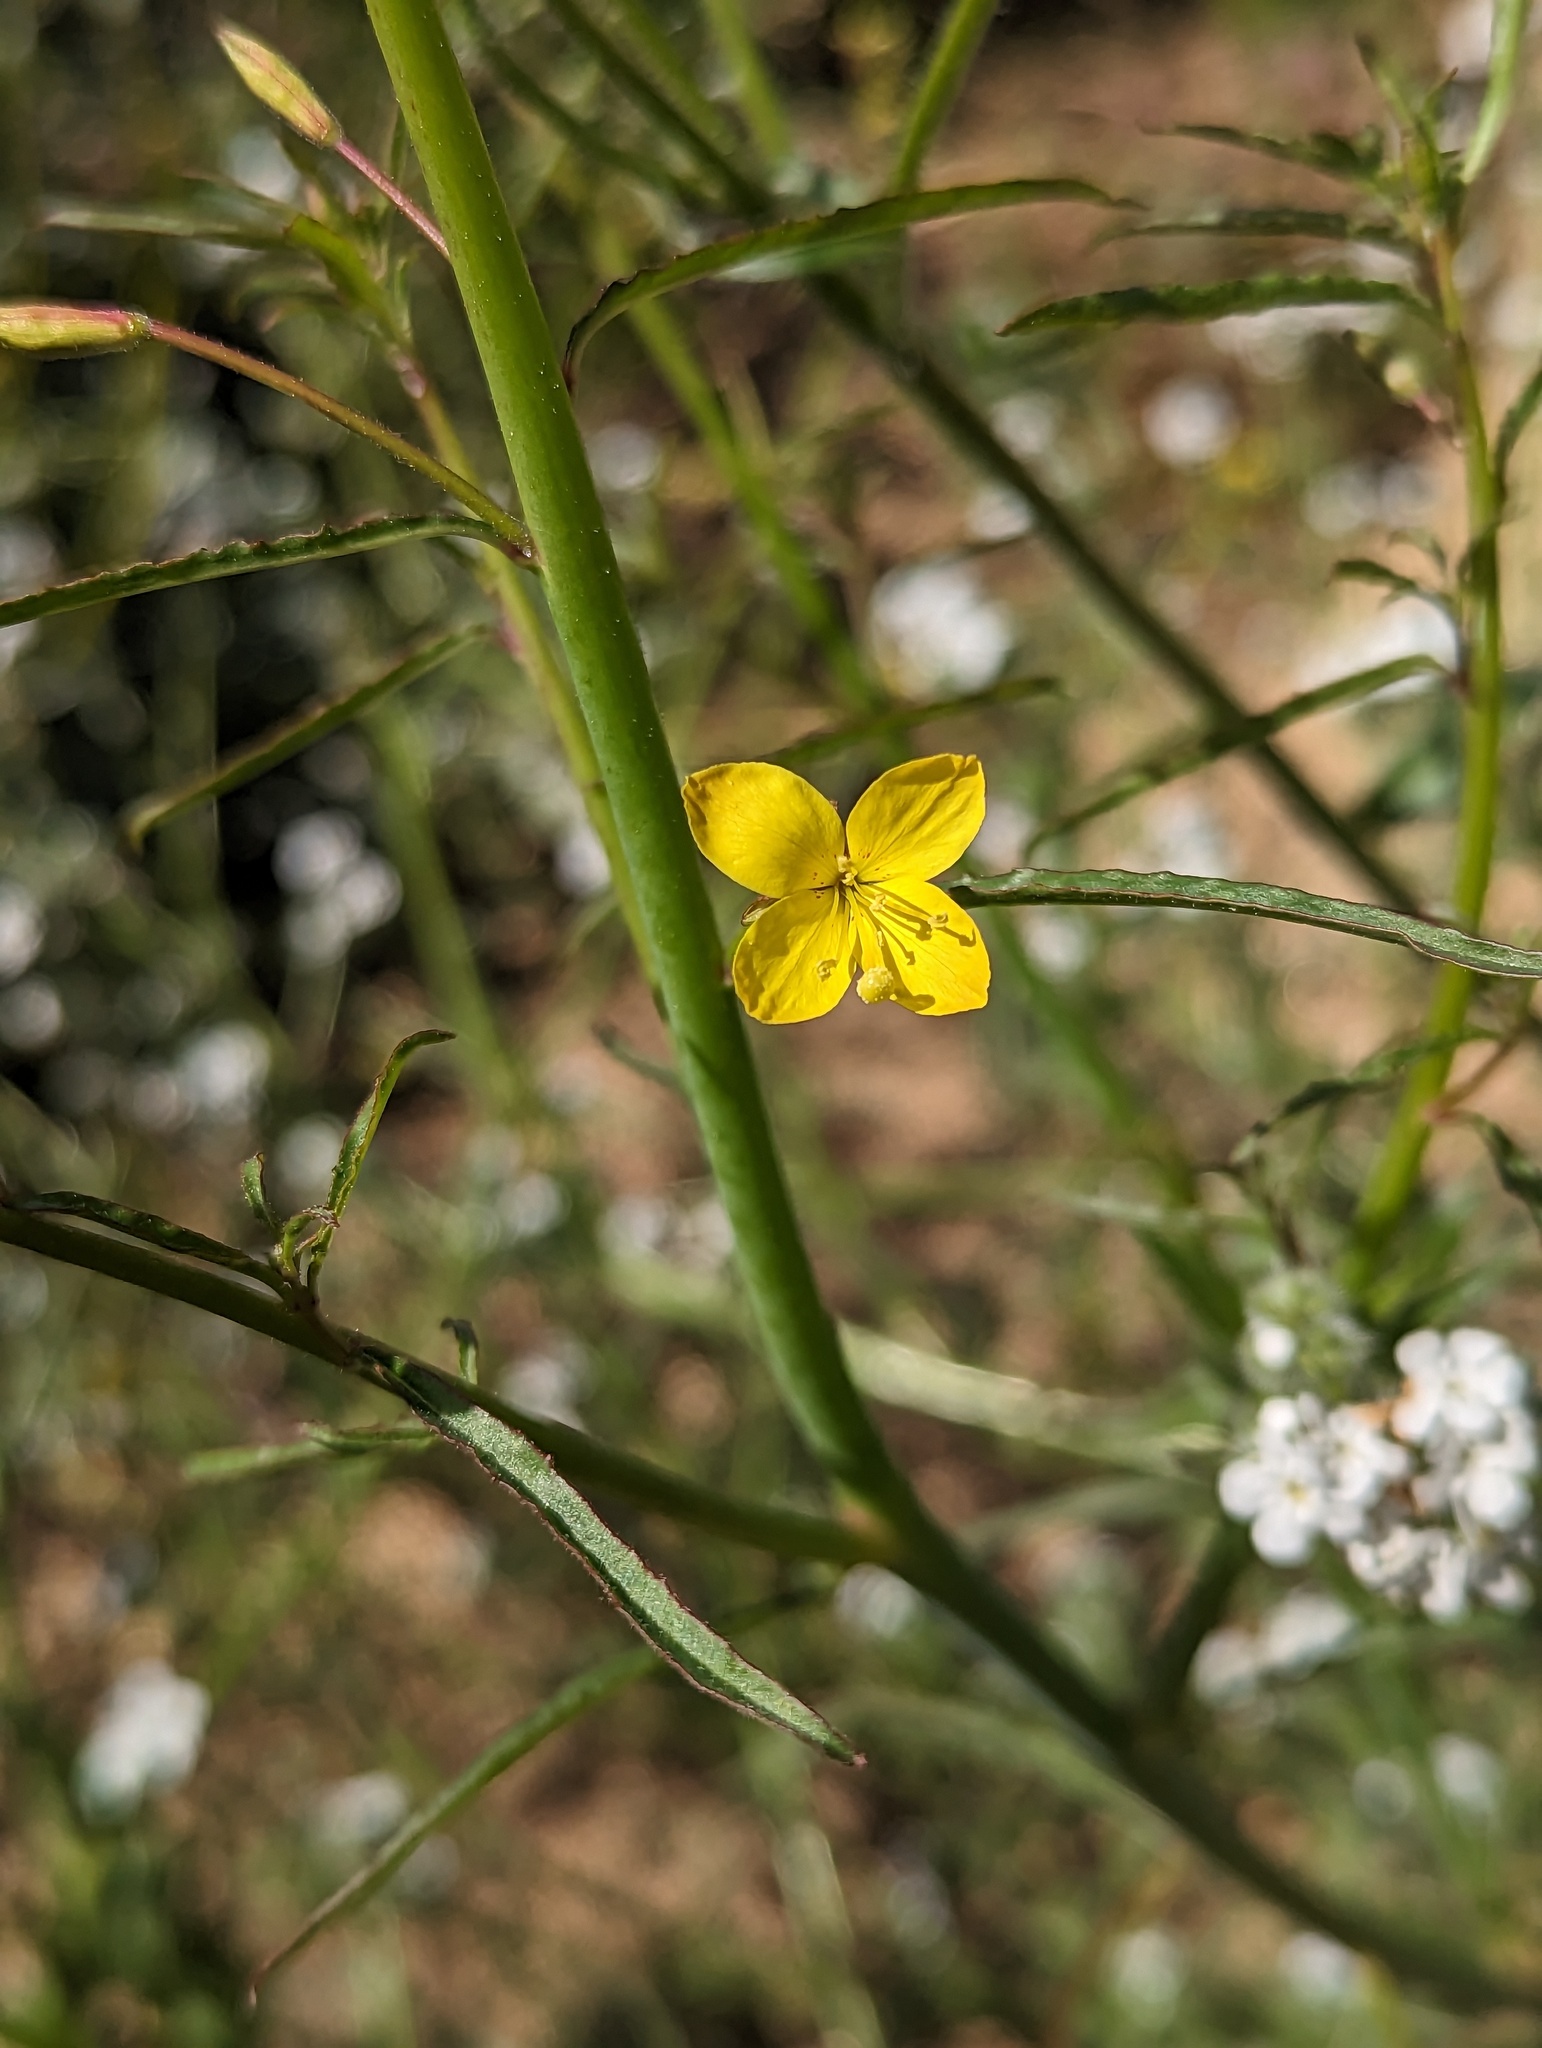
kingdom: Plantae
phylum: Tracheophyta
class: Magnoliopsida
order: Myrtales
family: Onagraceae
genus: Eulobus
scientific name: Eulobus californicus
